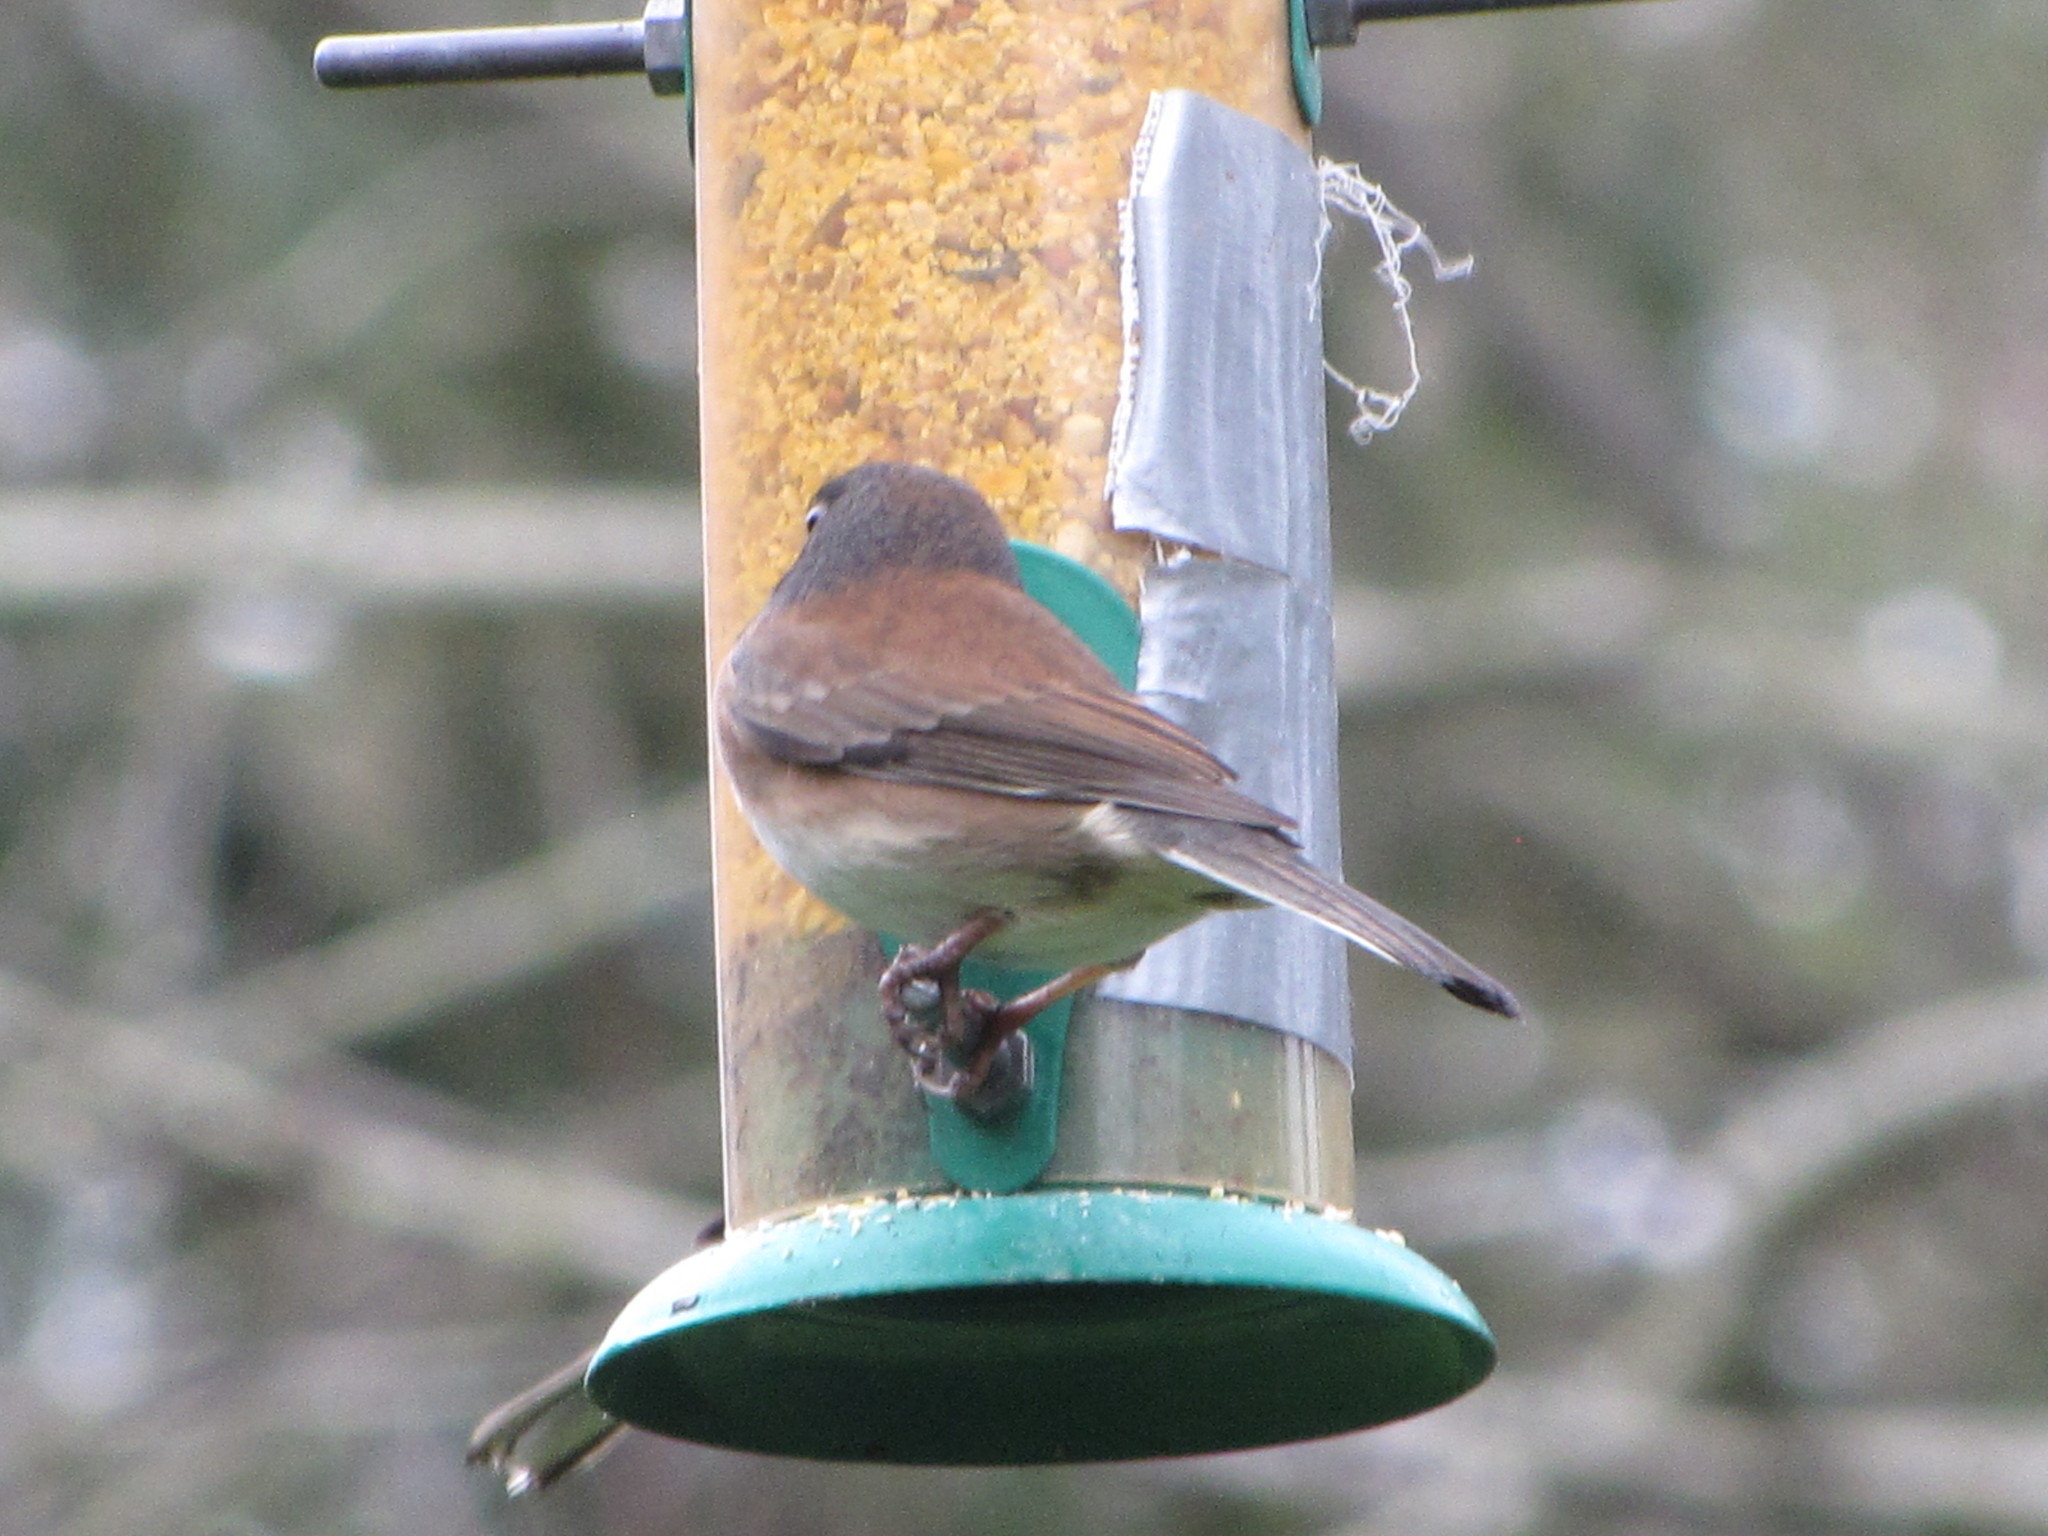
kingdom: Animalia
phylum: Chordata
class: Aves
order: Passeriformes
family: Passerellidae
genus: Junco
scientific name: Junco hyemalis
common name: Dark-eyed junco
